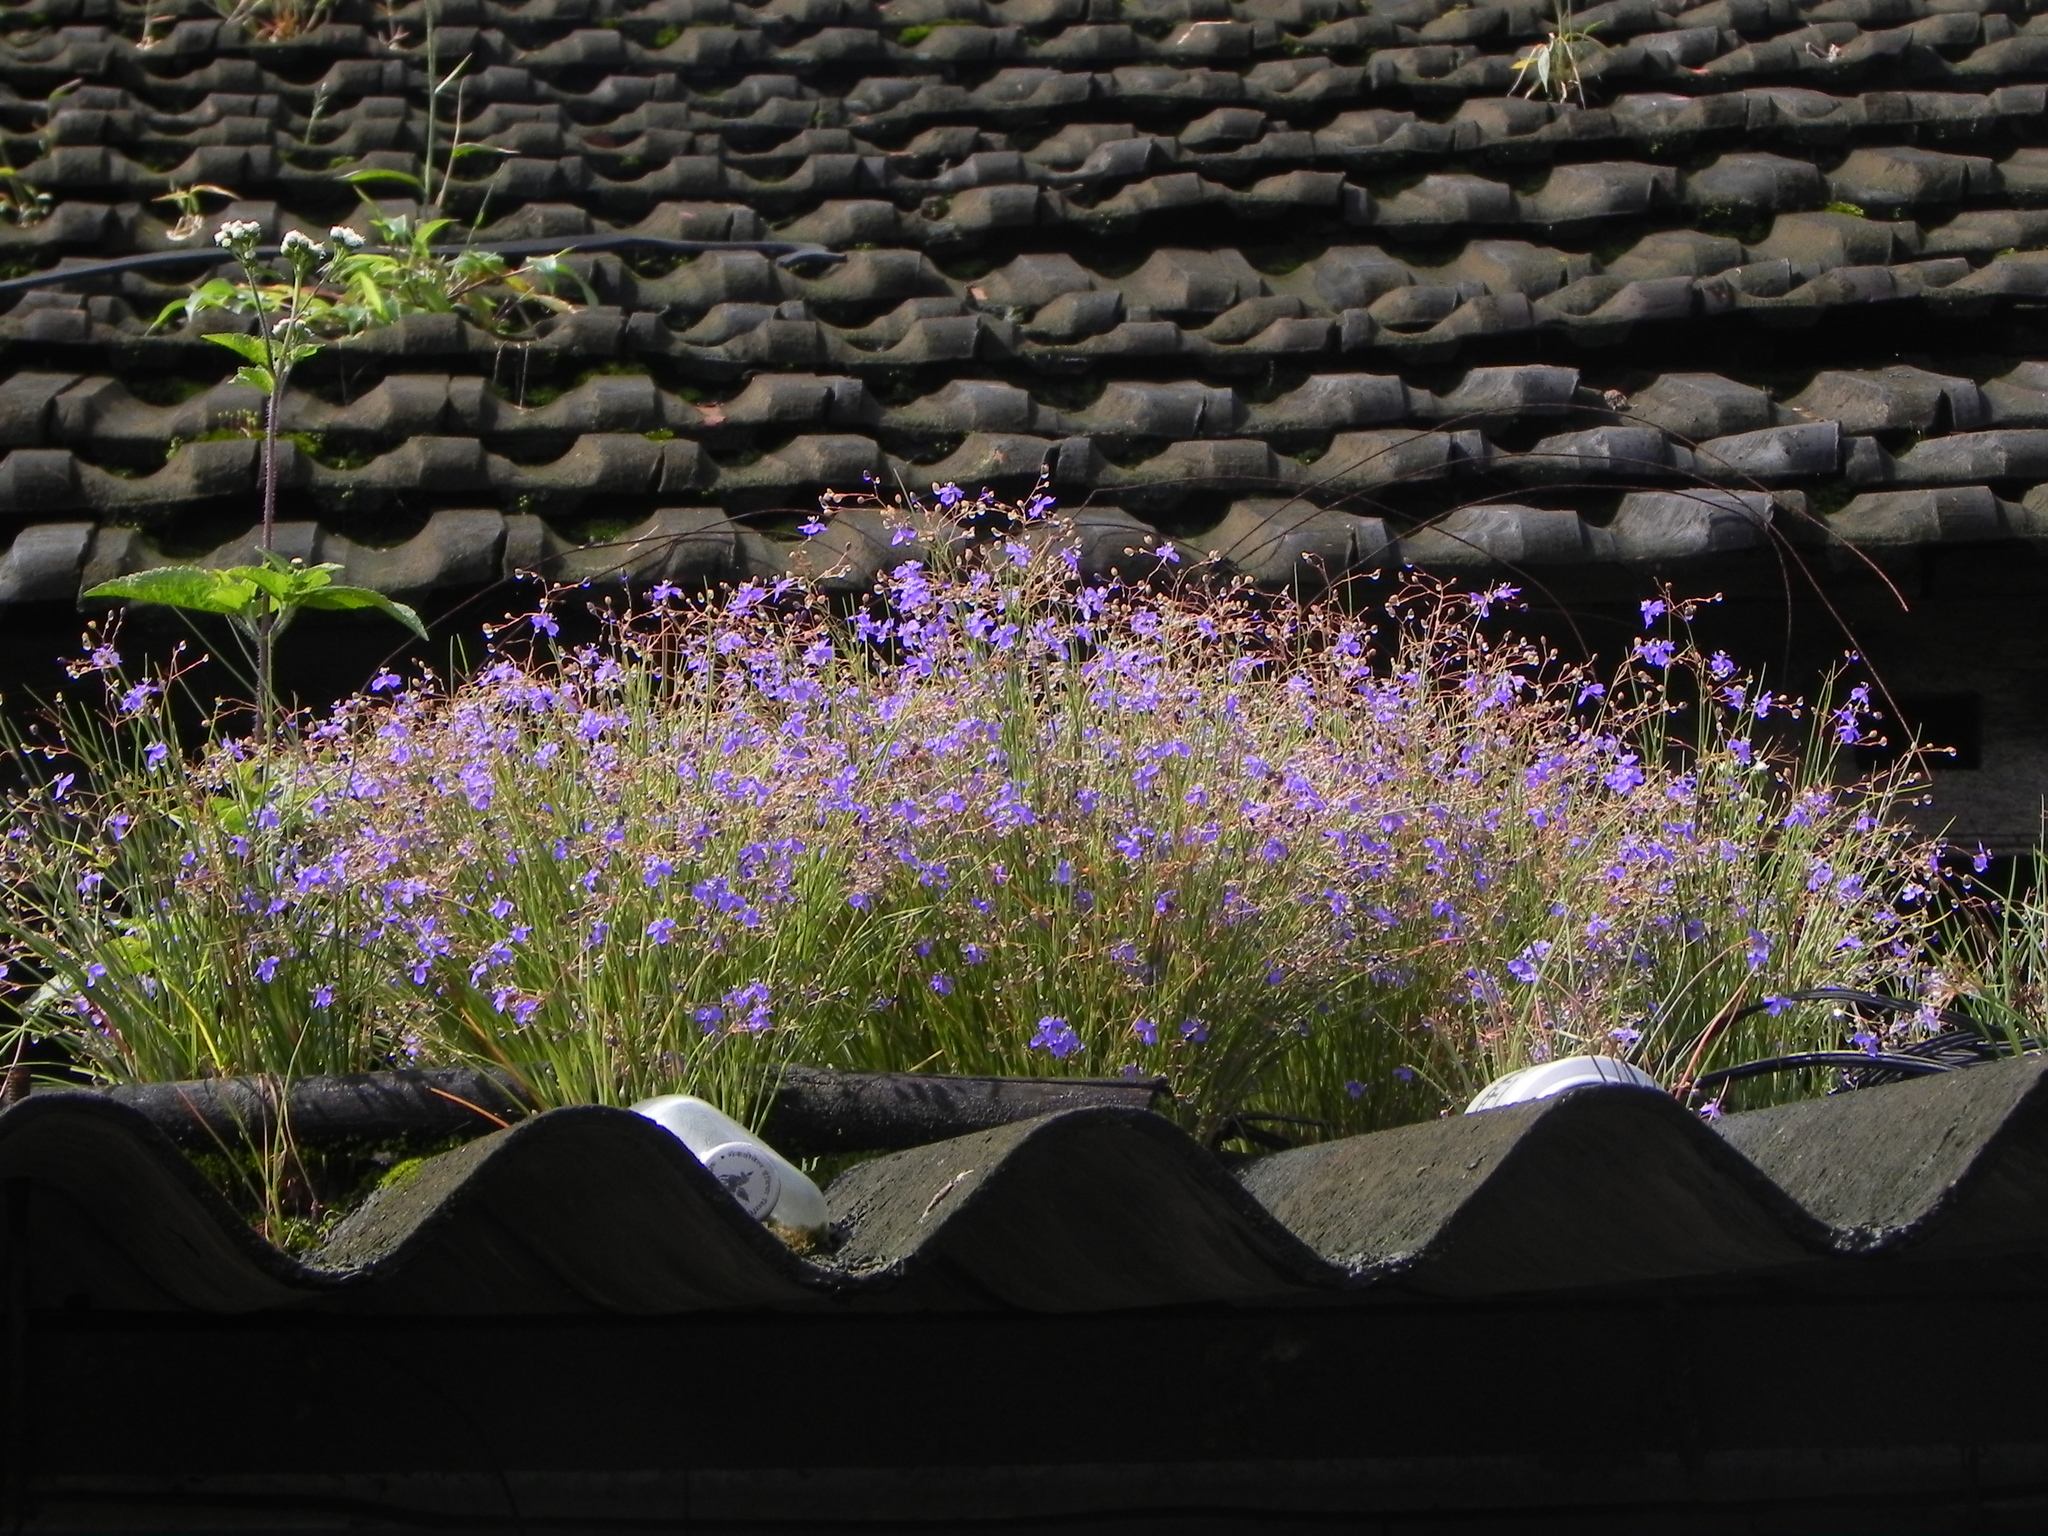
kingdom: Plantae
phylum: Tracheophyta
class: Liliopsida
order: Commelinales
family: Commelinaceae
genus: Murdannia
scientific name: Murdannia semiteres
